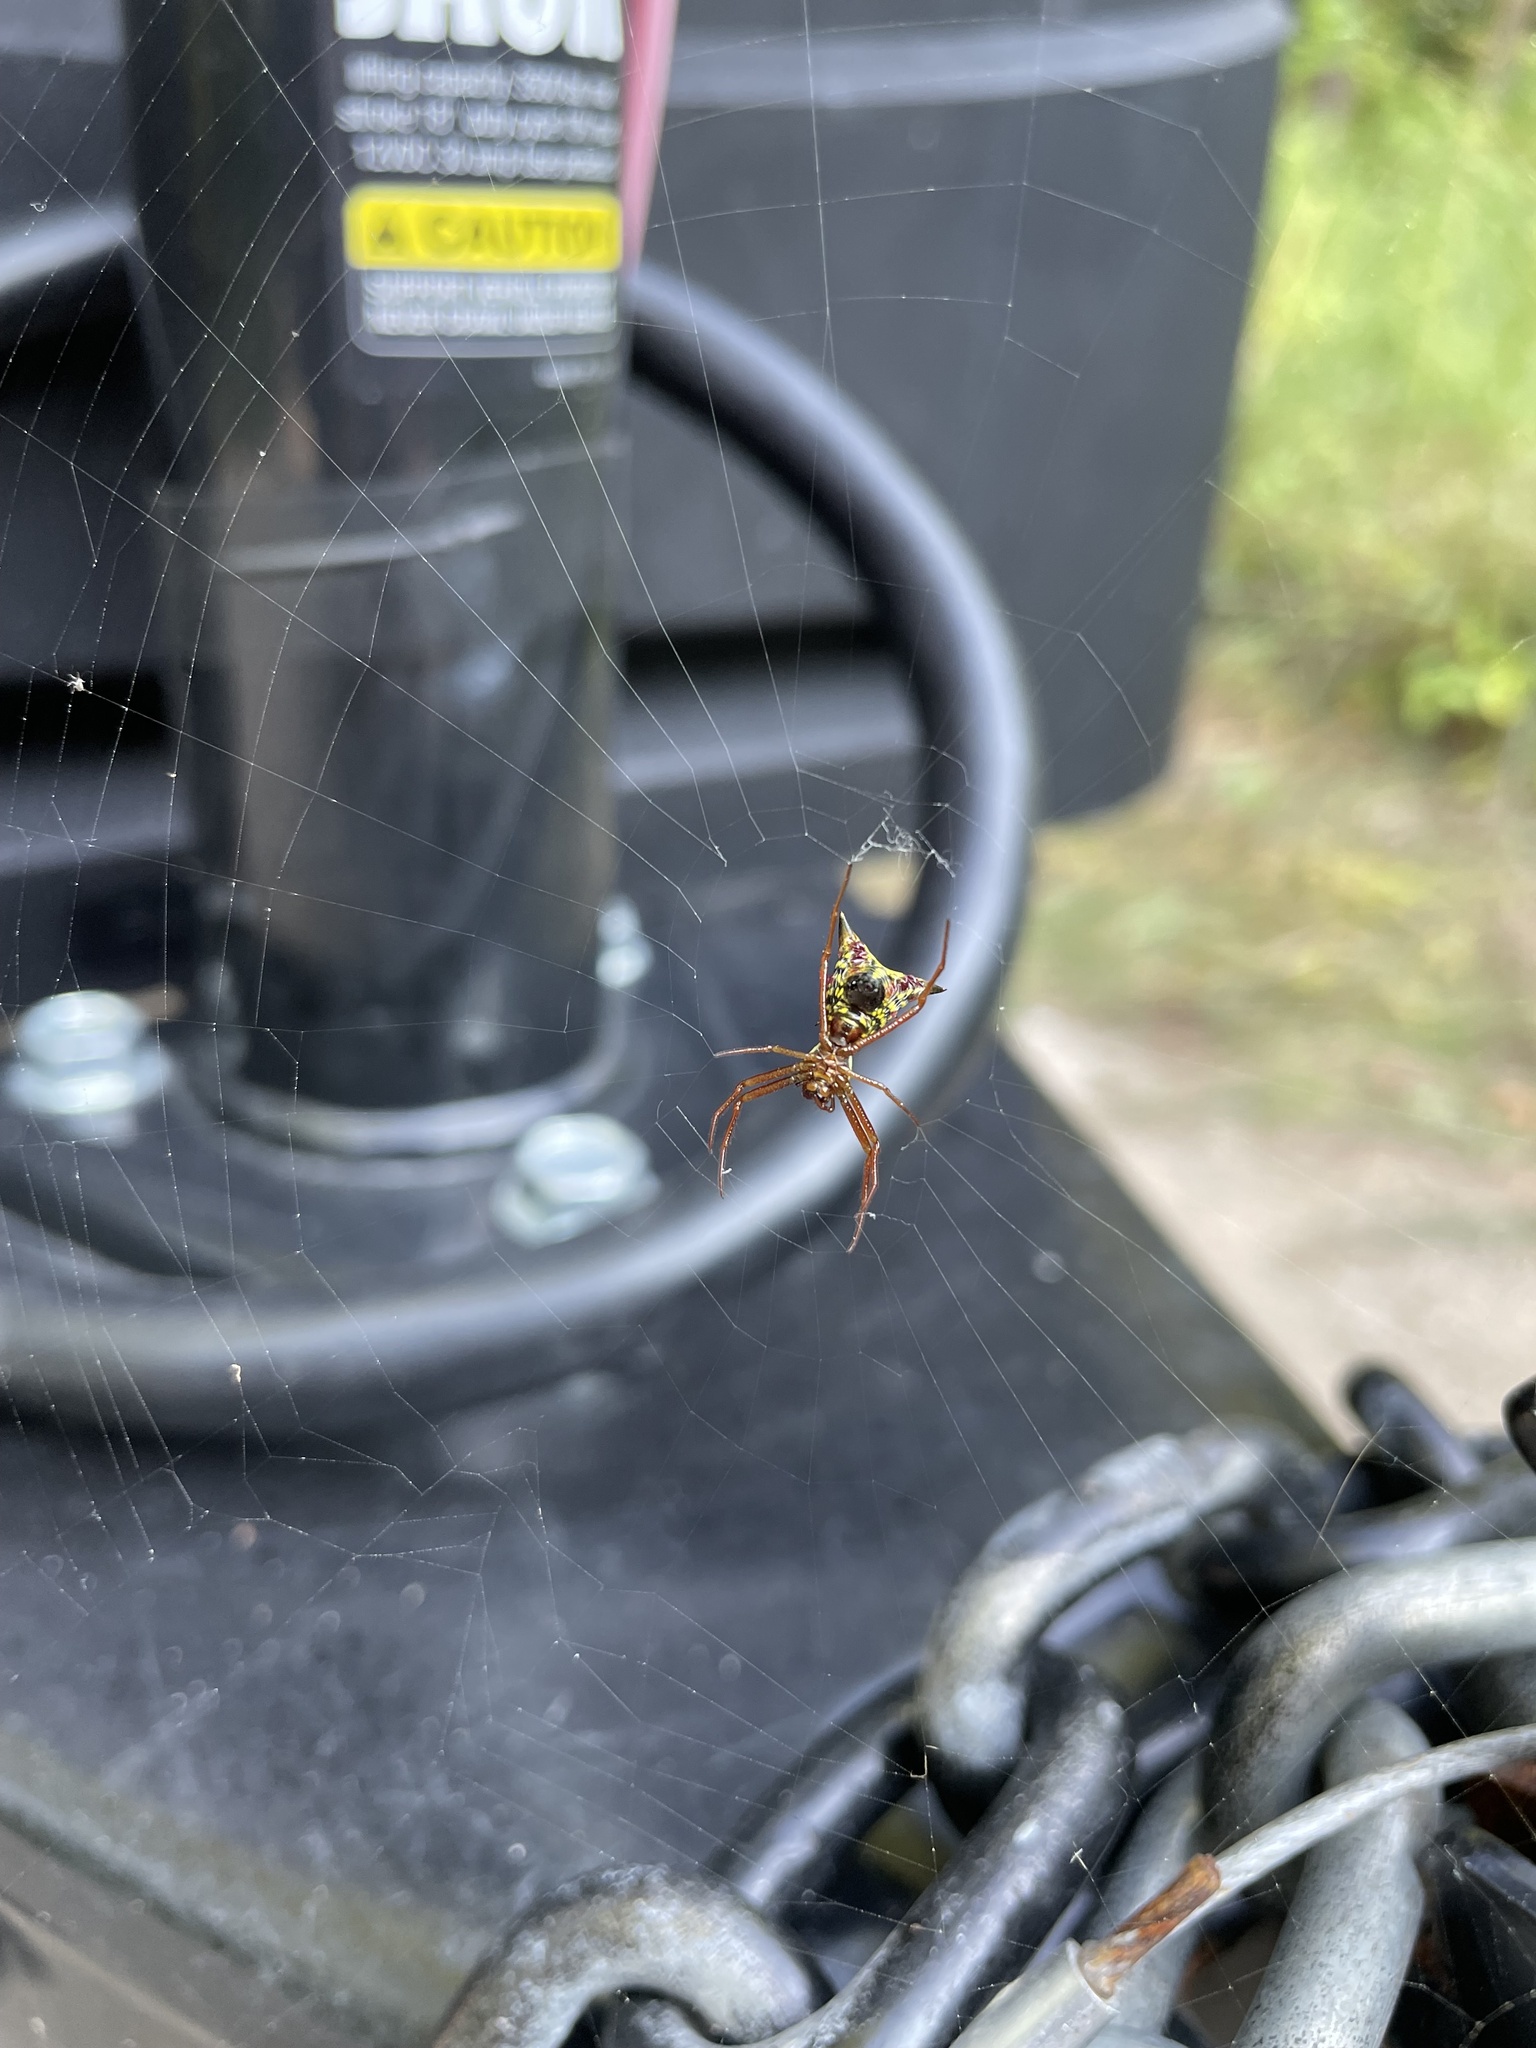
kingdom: Animalia
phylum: Arthropoda
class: Arachnida
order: Araneae
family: Araneidae
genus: Micrathena
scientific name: Micrathena sagittata
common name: Orb weavers
